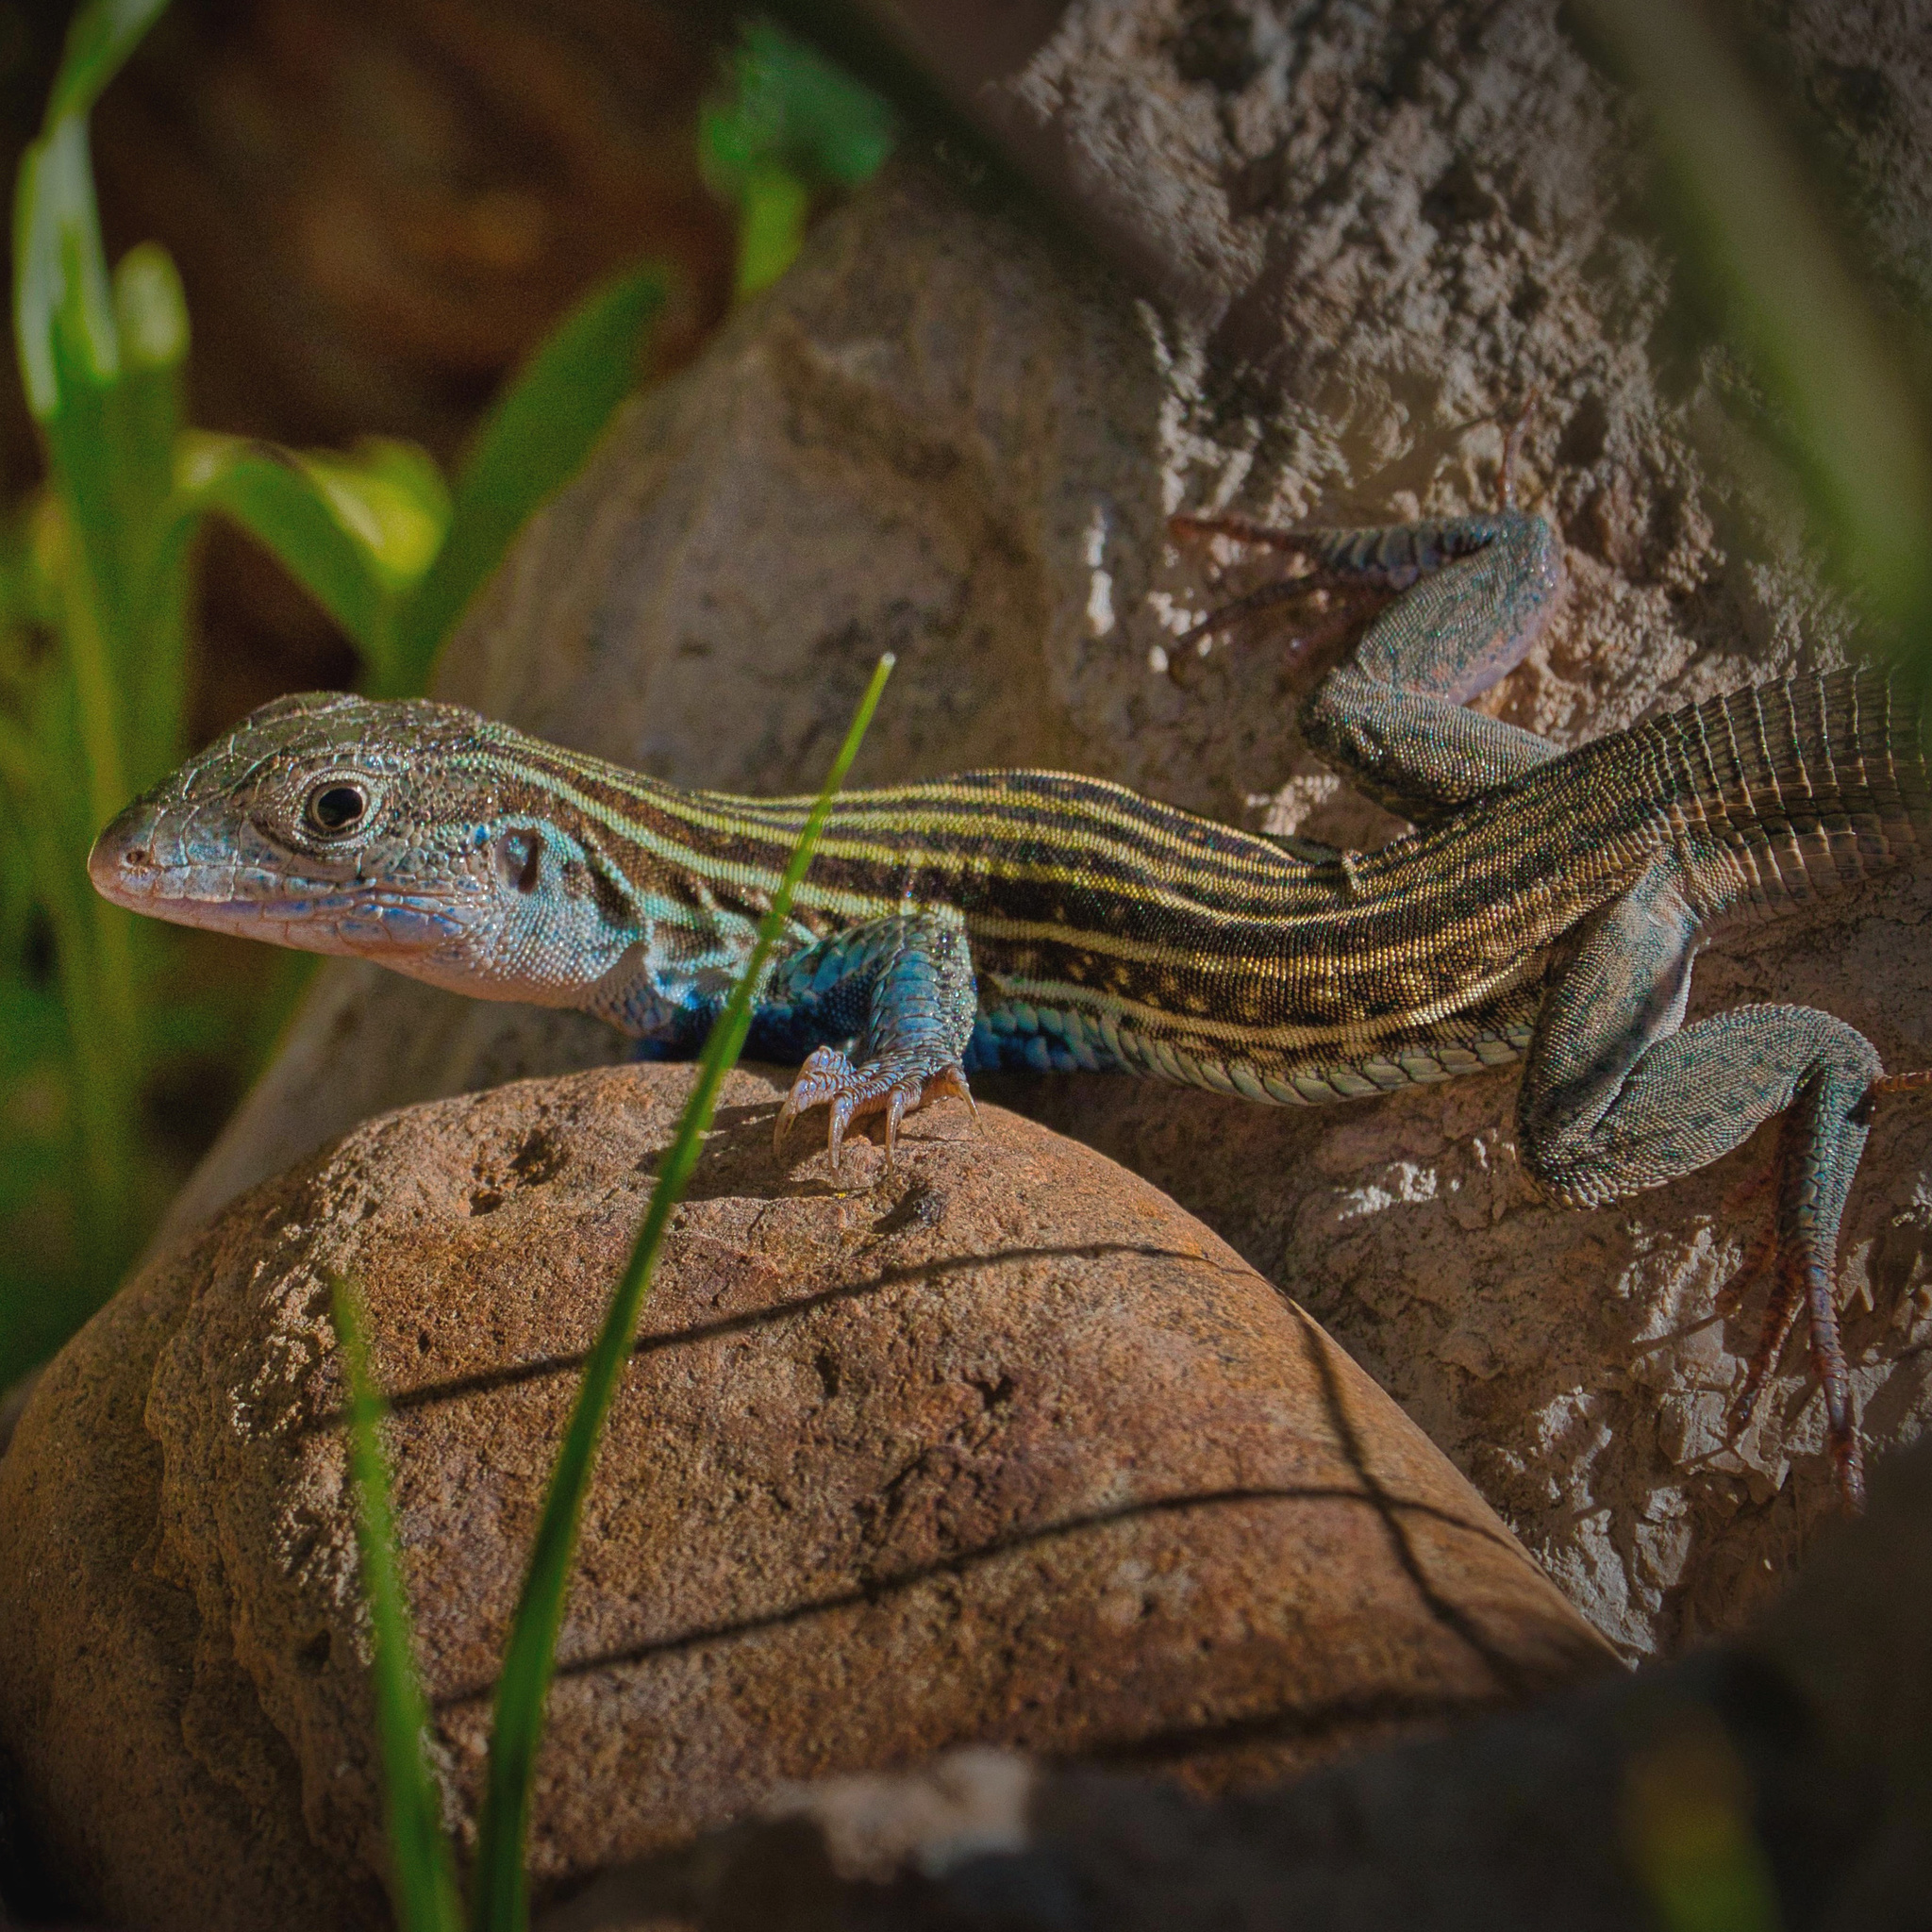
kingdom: Animalia
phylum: Chordata
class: Squamata
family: Teiidae
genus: Aspidoscelis
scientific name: Aspidoscelis gularis
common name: Eastern spotted whiptail
